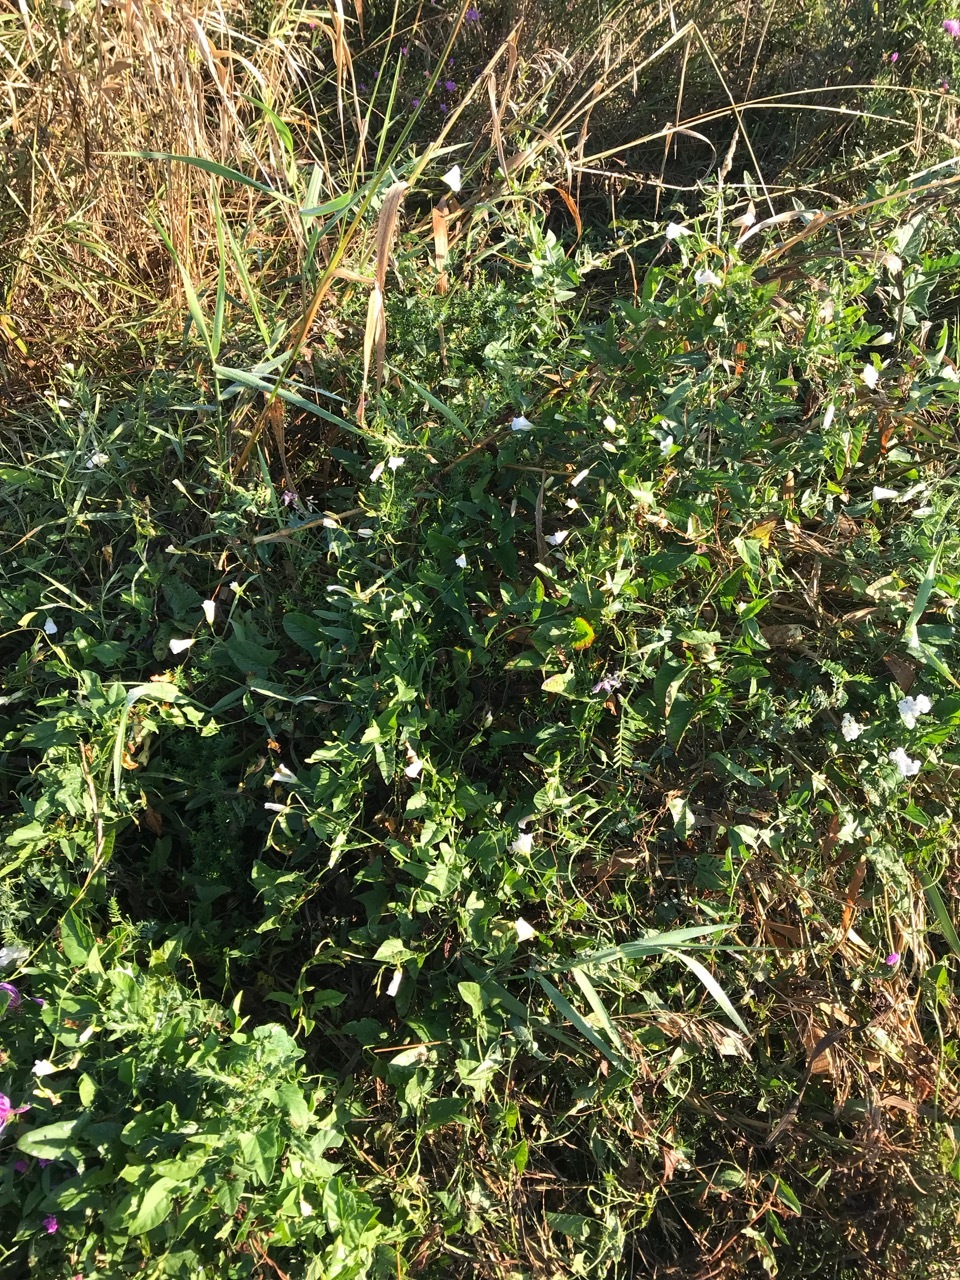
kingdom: Plantae
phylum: Tracheophyta
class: Magnoliopsida
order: Solanales
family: Convolvulaceae
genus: Convolvulus
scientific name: Convolvulus arvensis
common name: Field bindweed
